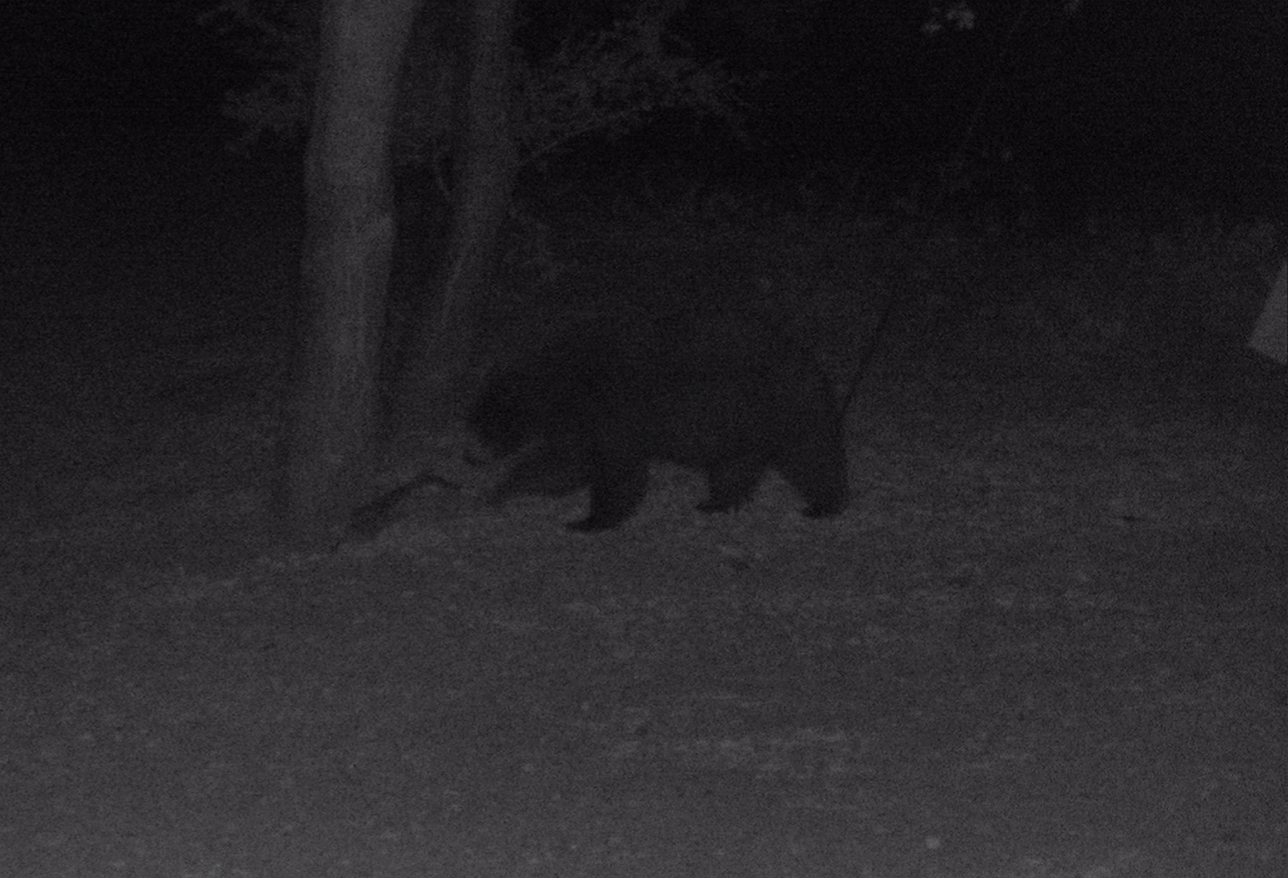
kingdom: Animalia
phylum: Chordata
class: Mammalia
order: Carnivora
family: Ursidae
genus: Ursus
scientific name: Ursus americanus
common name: American black bear
